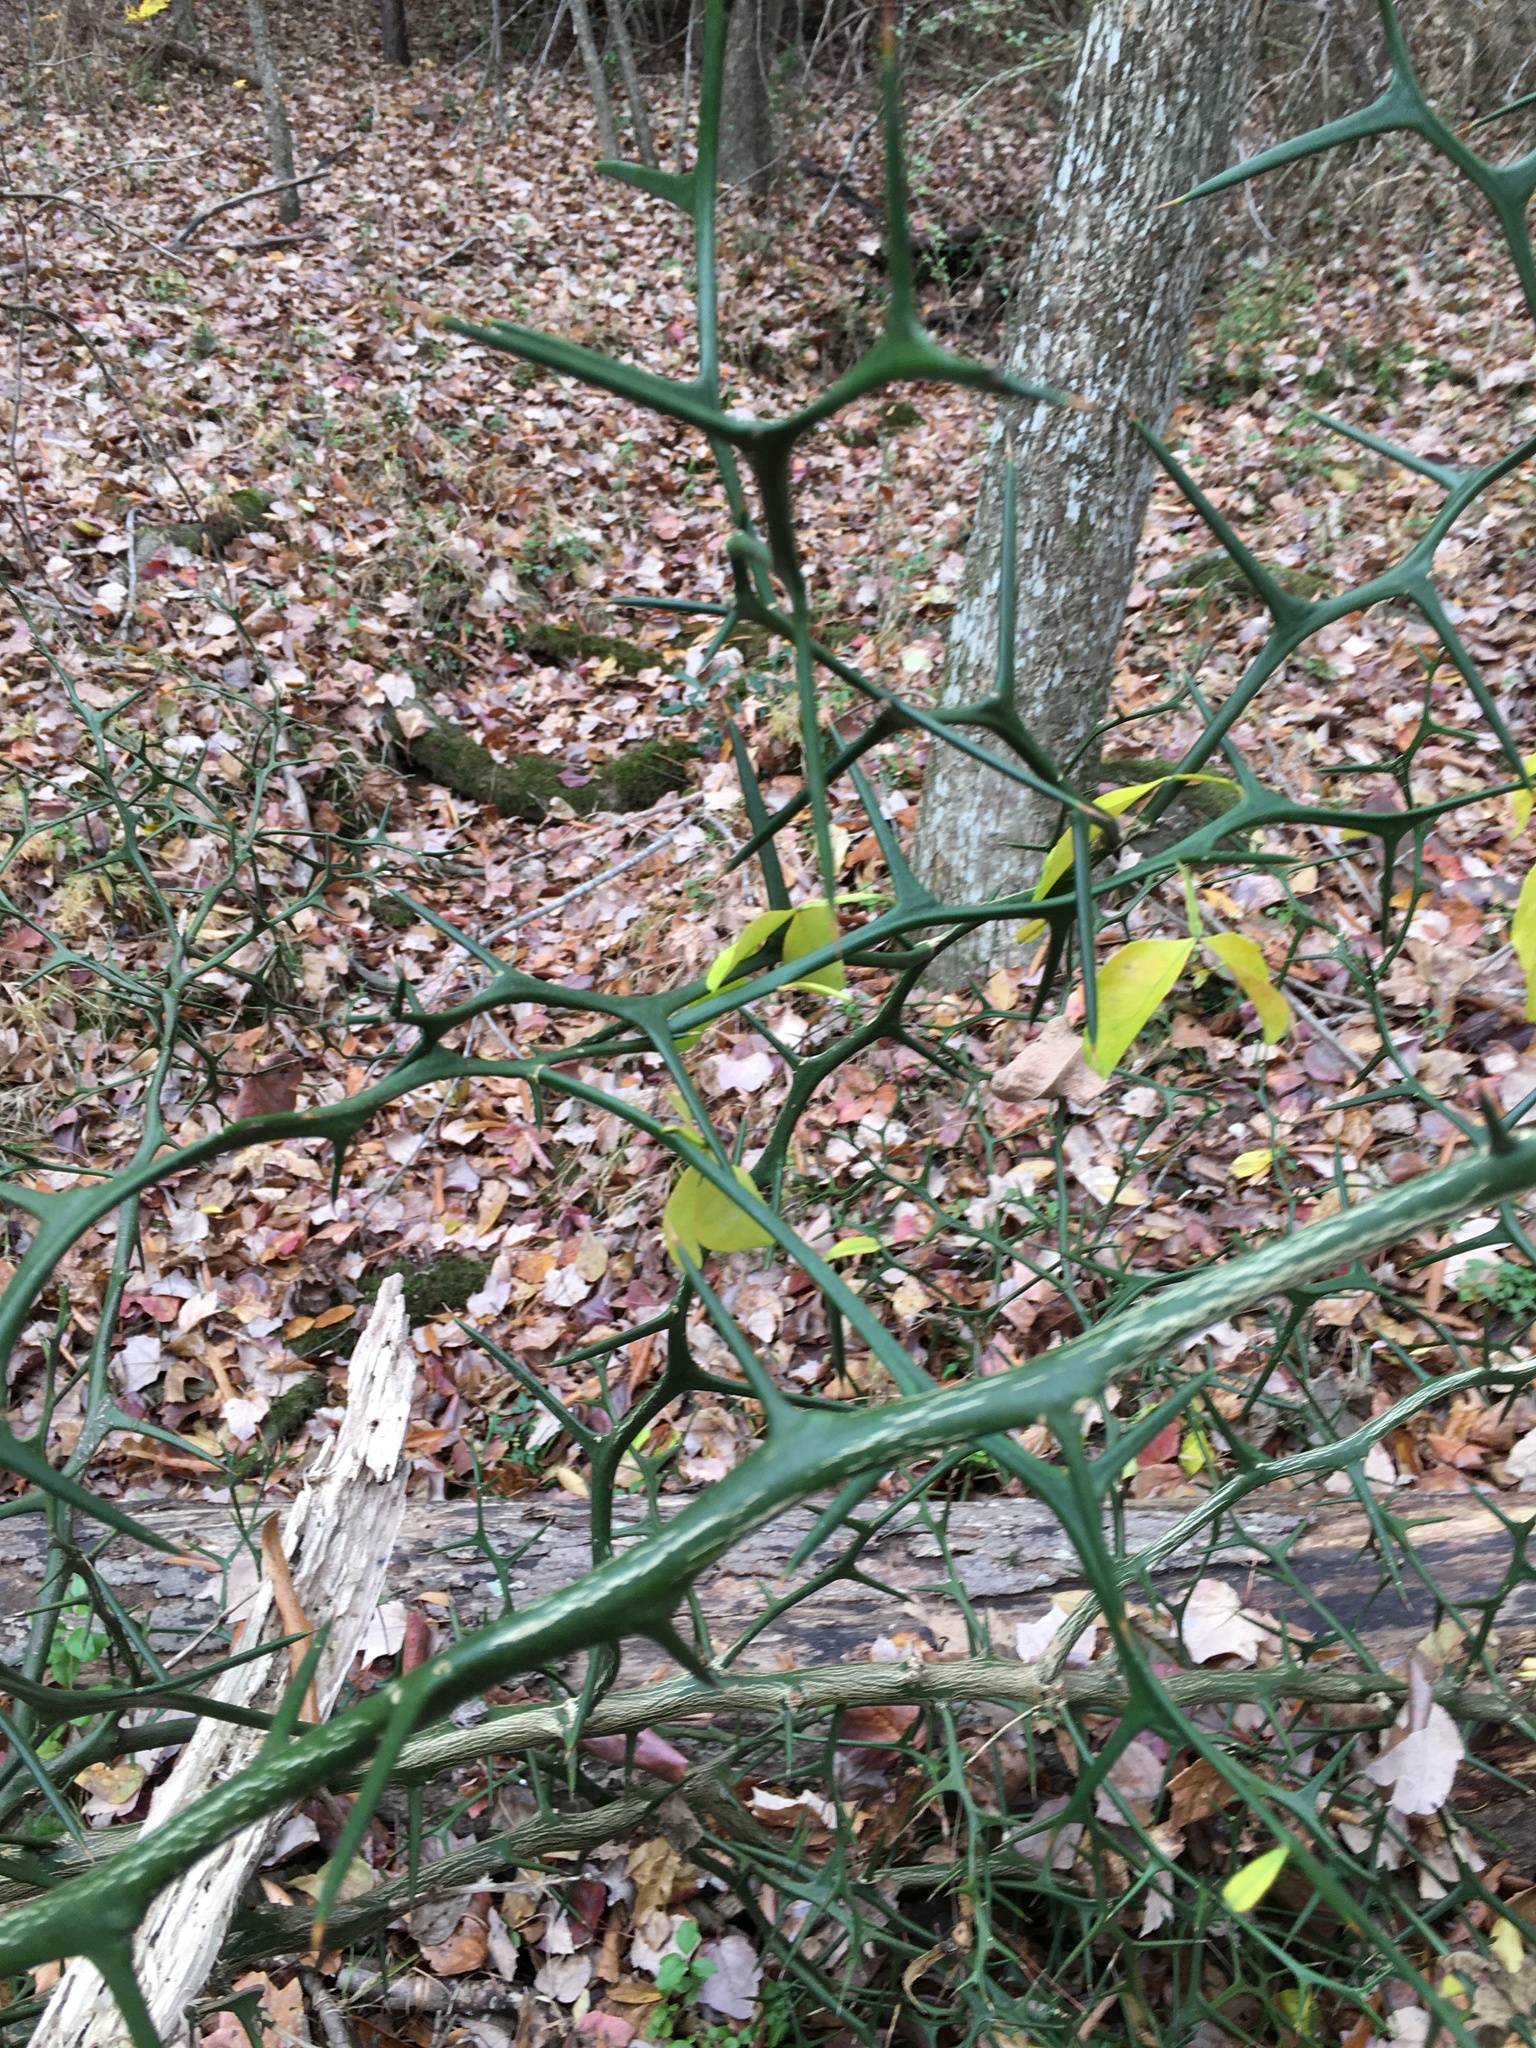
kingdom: Plantae
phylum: Tracheophyta
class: Magnoliopsida
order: Sapindales
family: Rutaceae
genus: Citrus
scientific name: Citrus trifoliata
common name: Japanese bitter-orange
